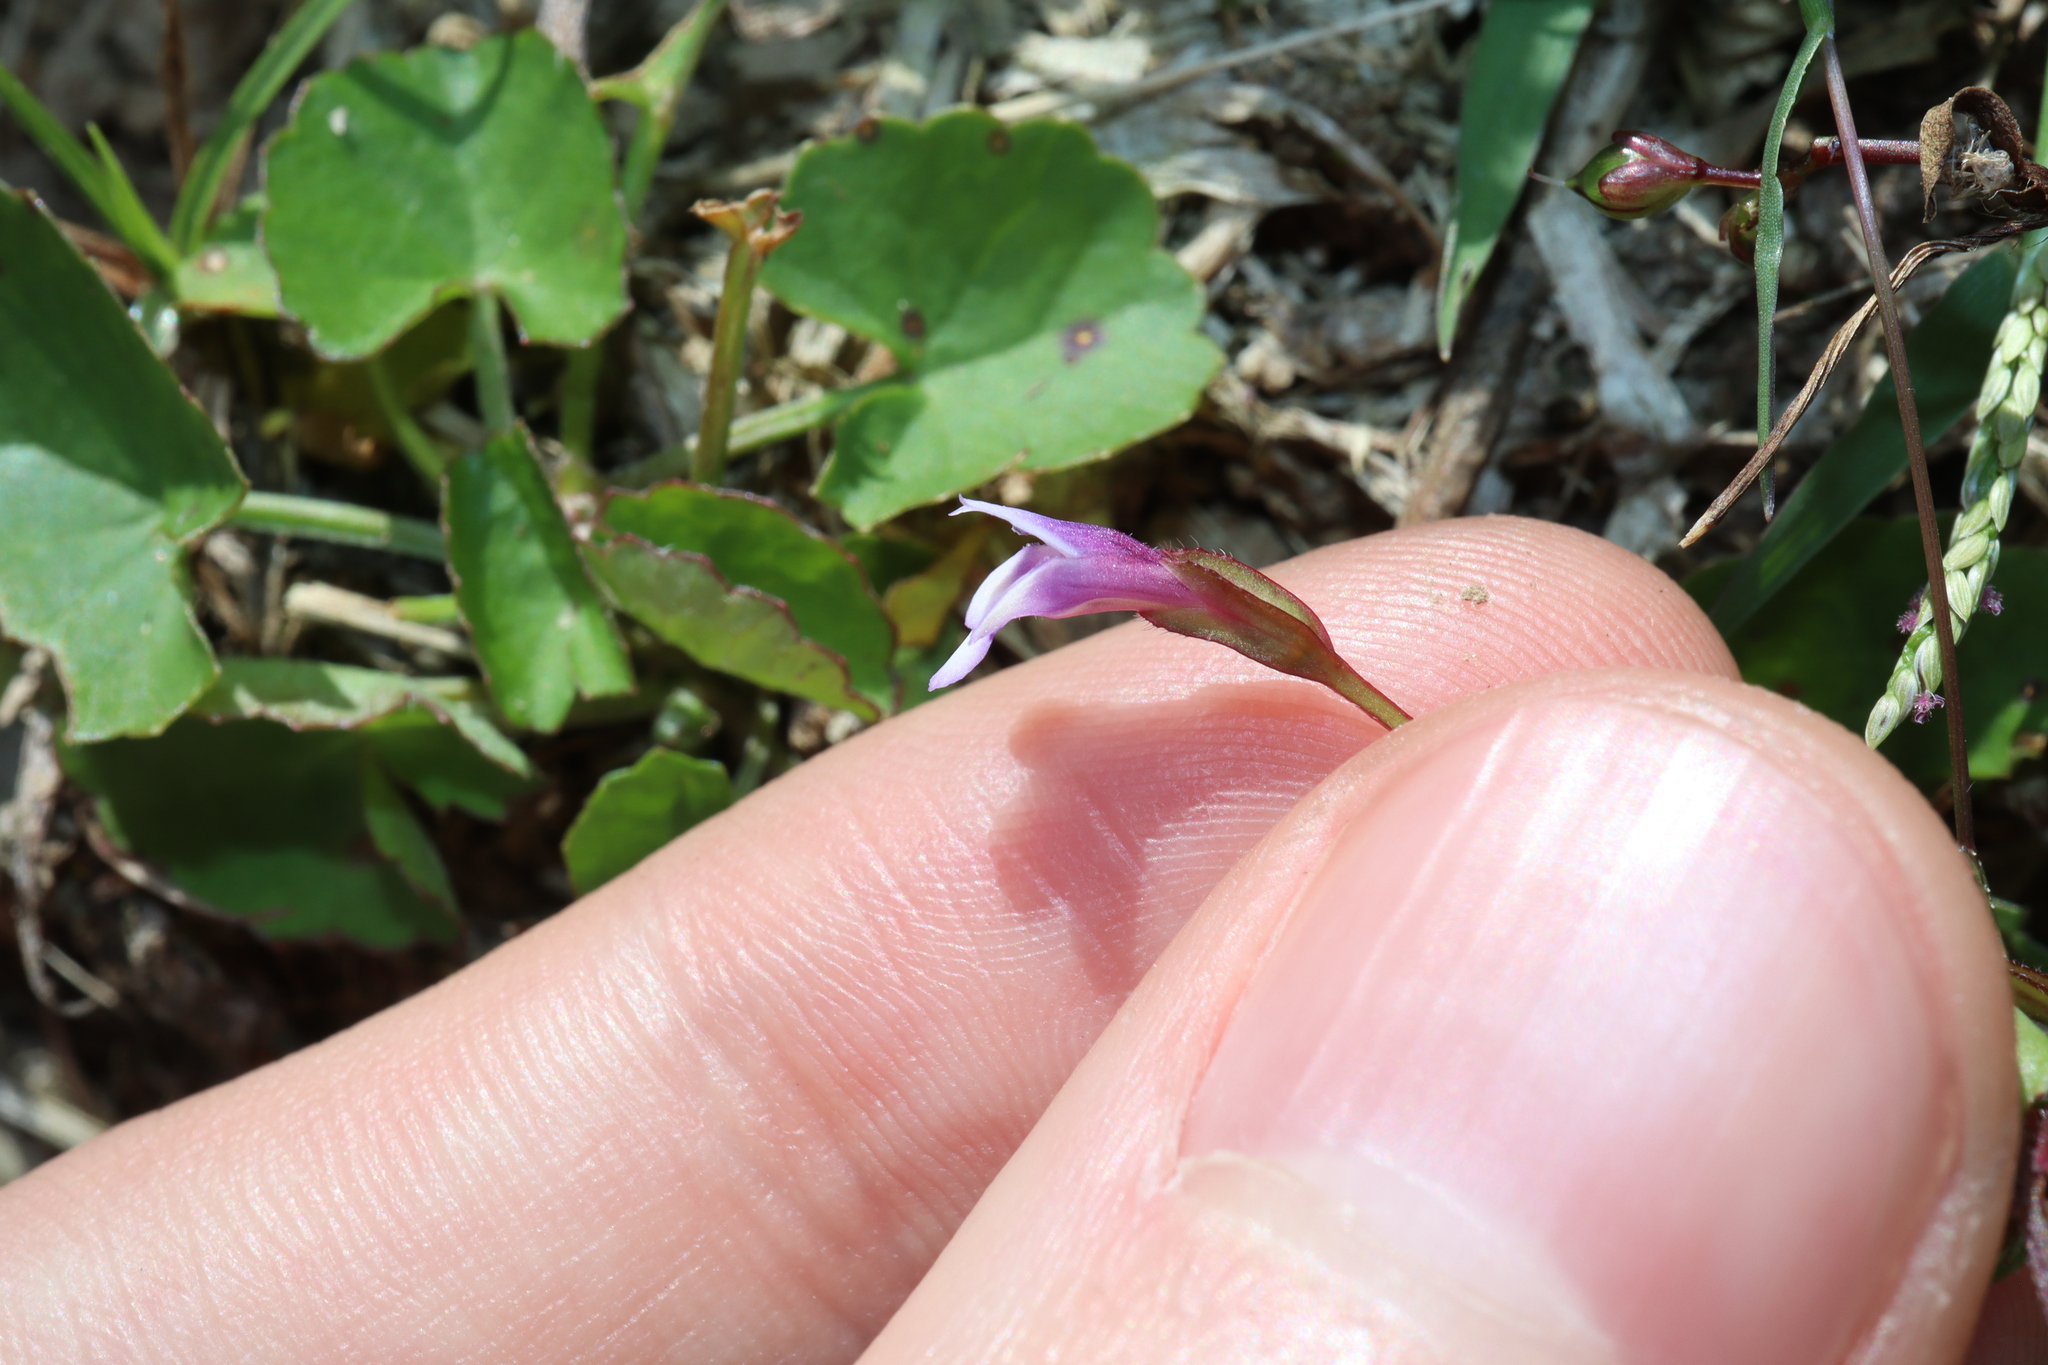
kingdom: Plantae
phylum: Tracheophyta
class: Magnoliopsida
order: Lamiales
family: Linderniaceae
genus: Torenia
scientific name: Torenia crustacea
